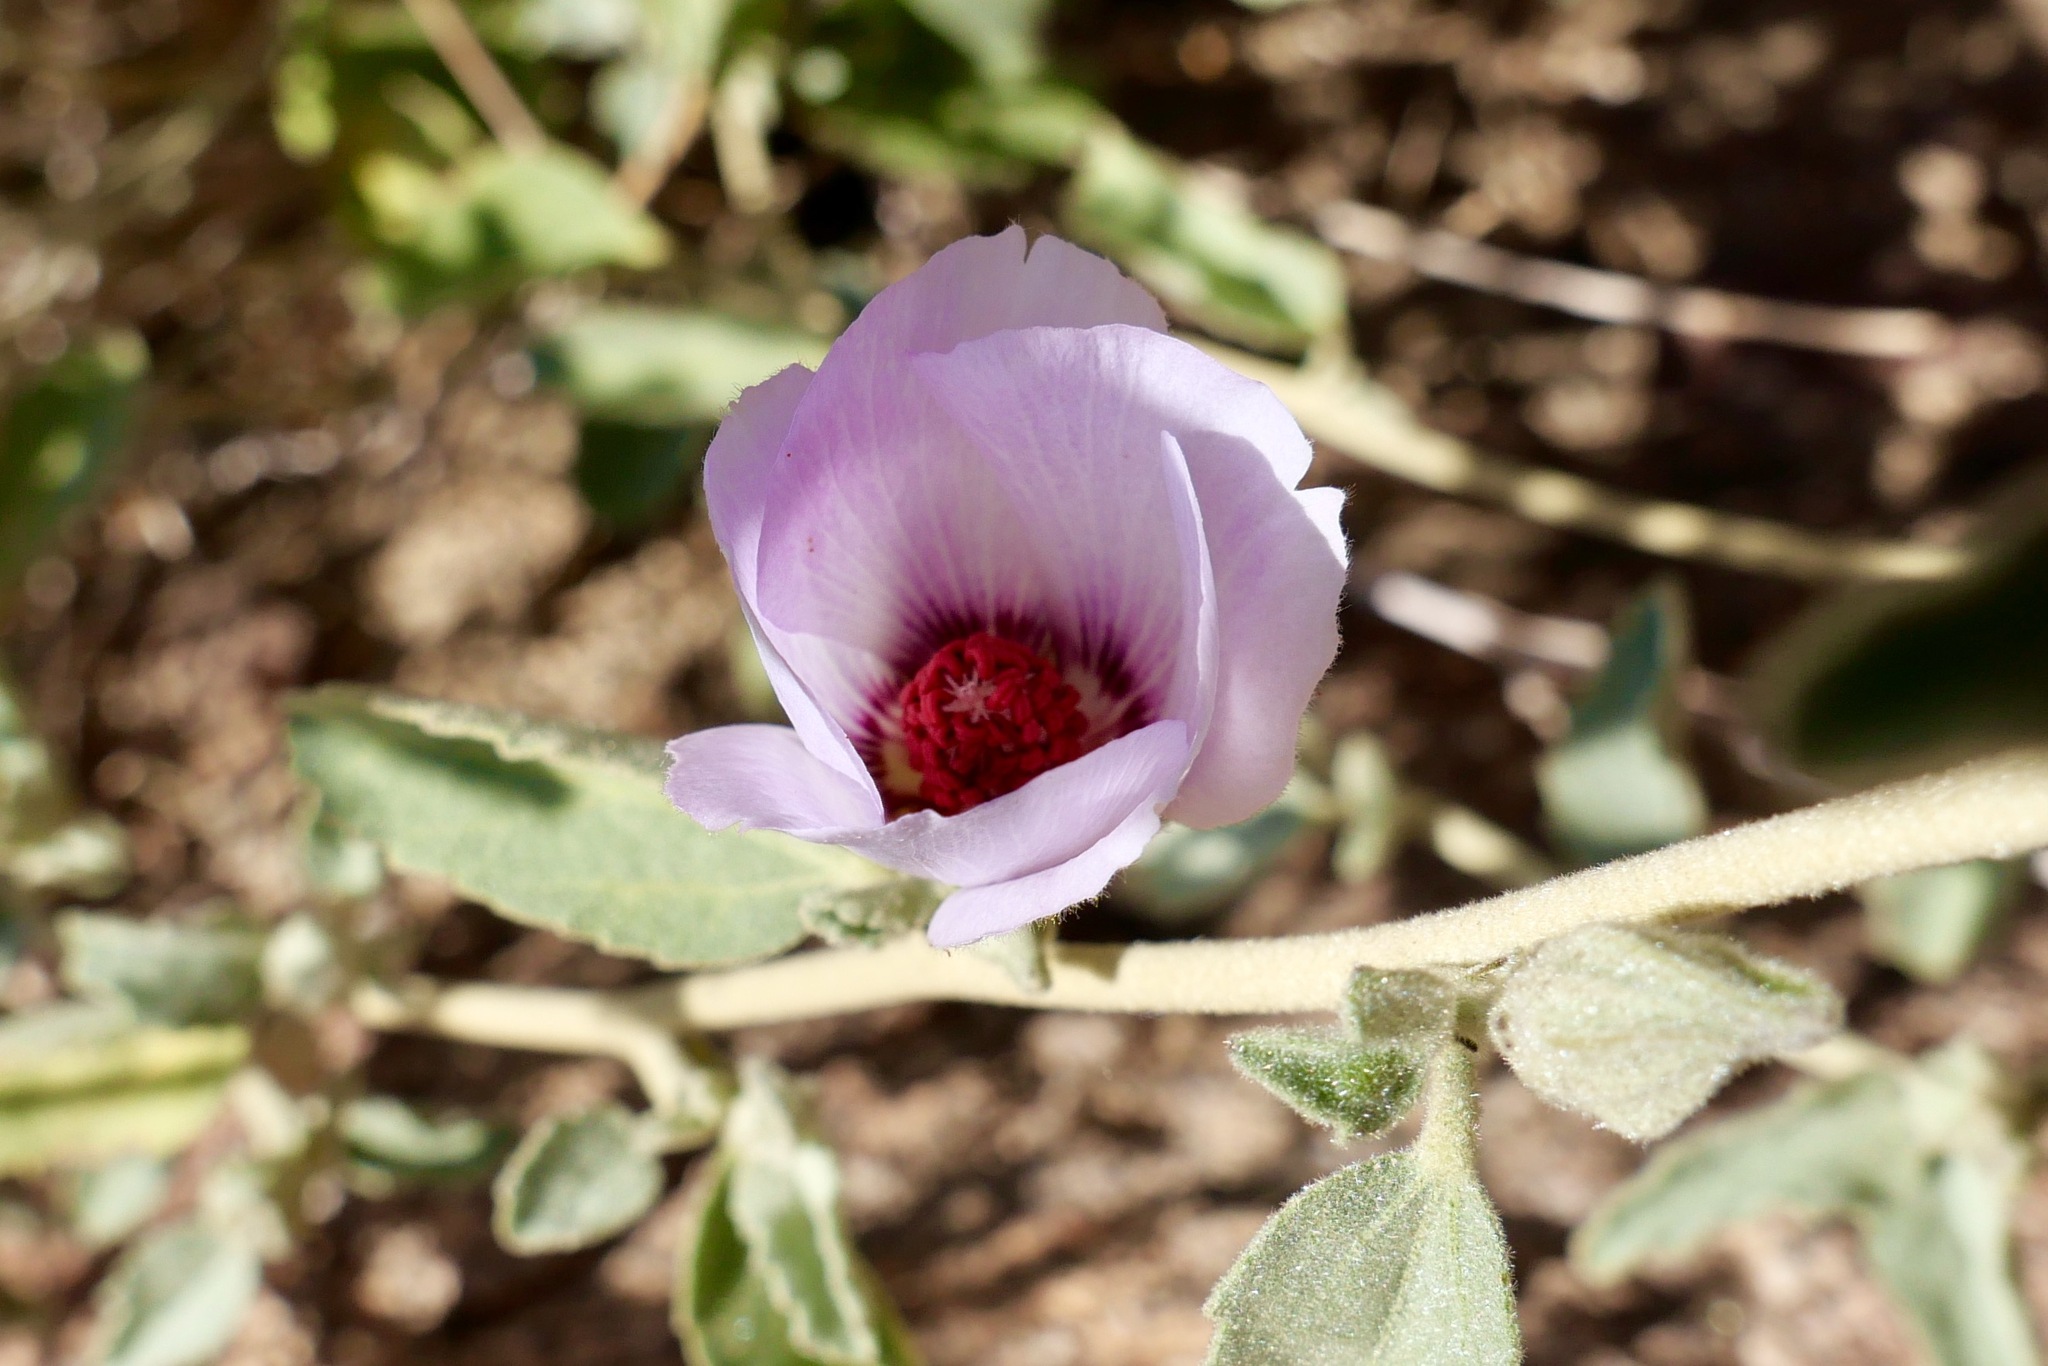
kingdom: Plantae
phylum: Tracheophyta
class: Magnoliopsida
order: Malvales
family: Malvaceae
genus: Hibiscus
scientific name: Hibiscus denudatus
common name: Paleface
